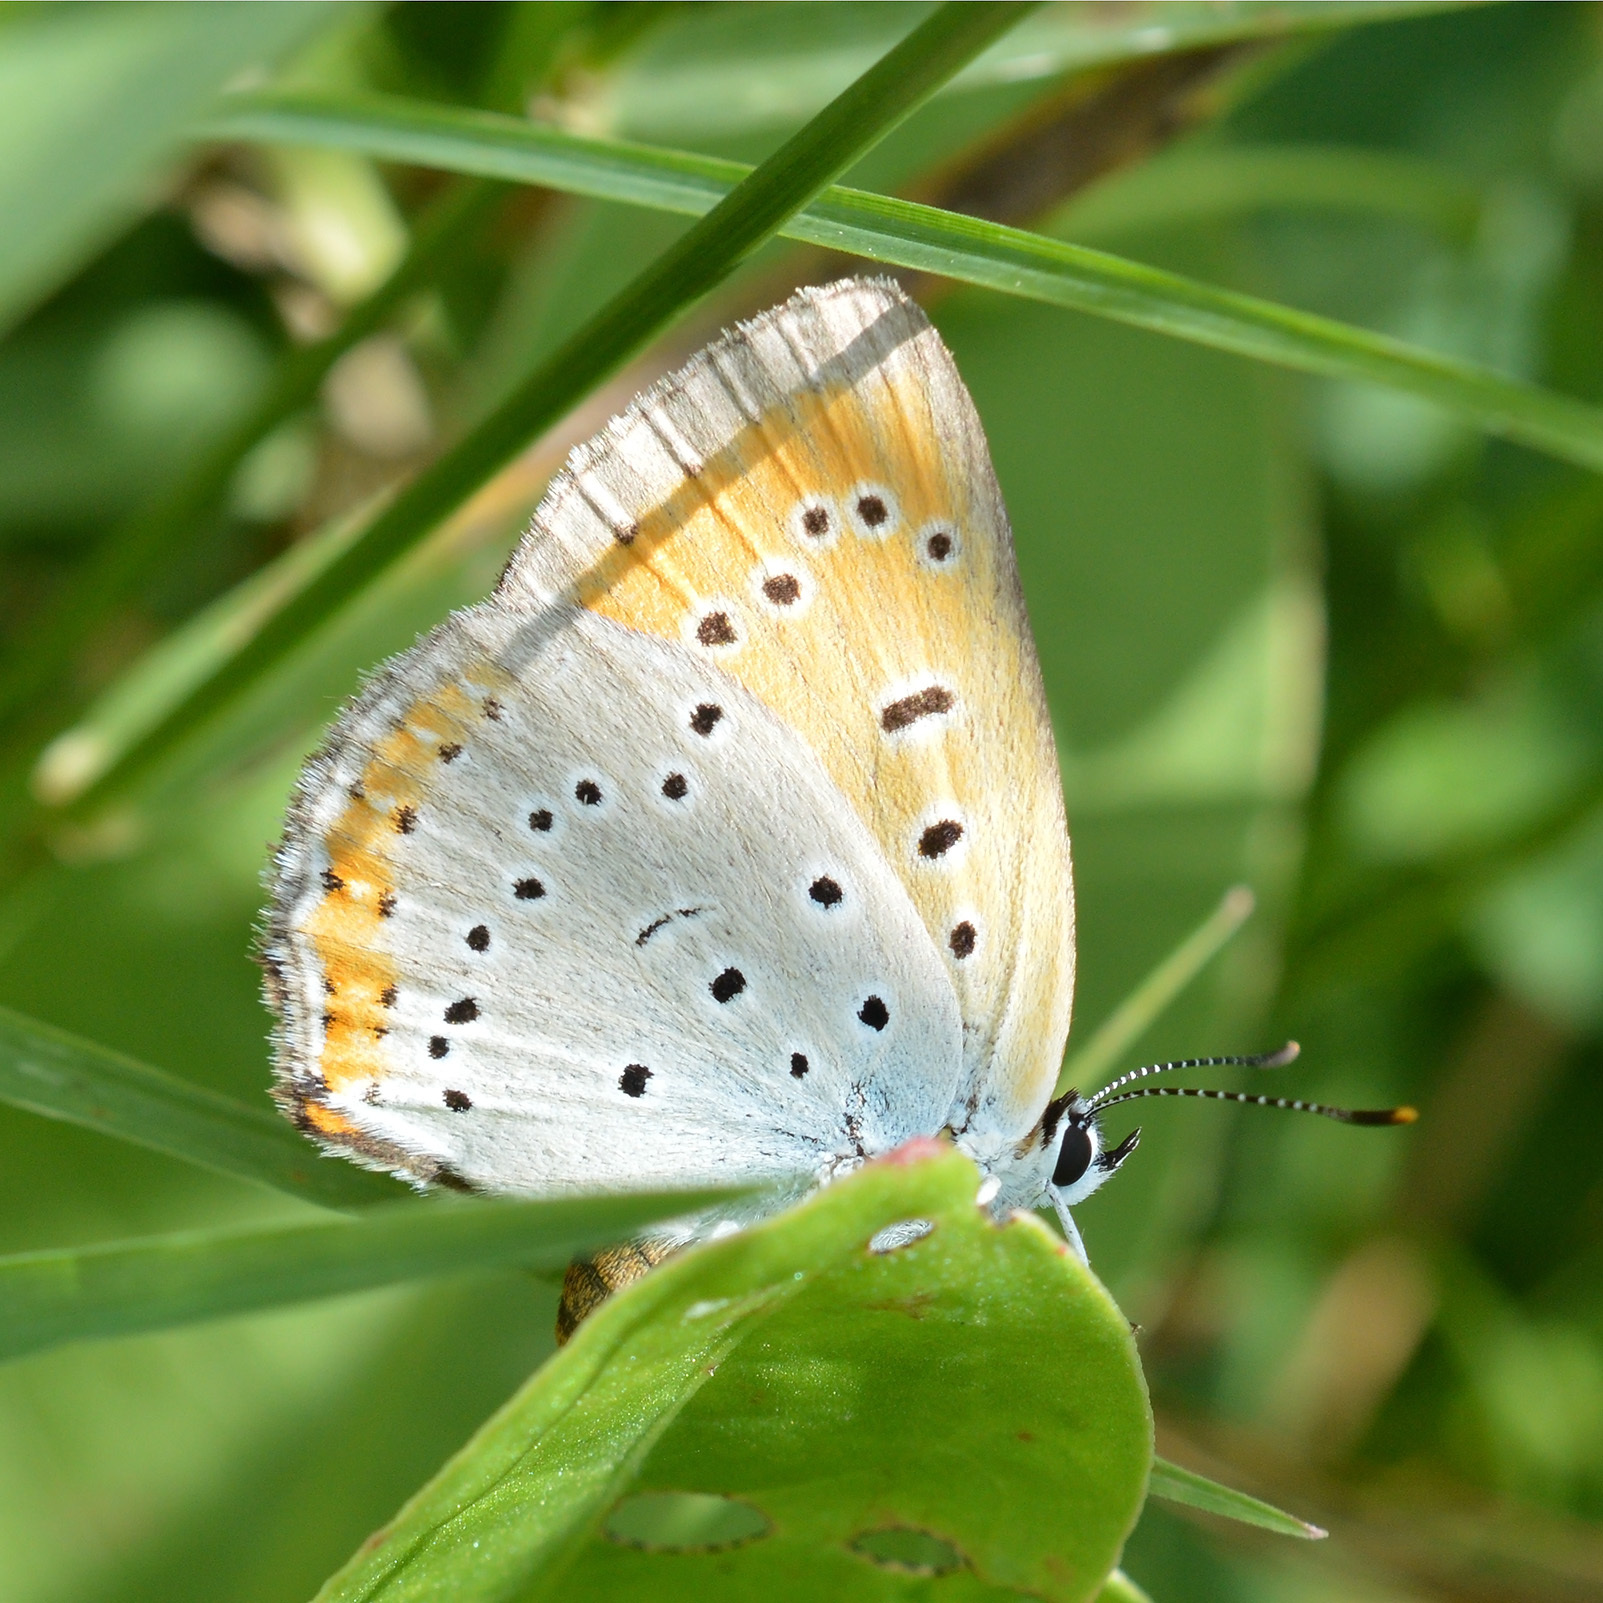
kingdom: Animalia
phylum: Arthropoda
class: Insecta
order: Lepidoptera
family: Lycaenidae
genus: Lycaena
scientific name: Lycaena dispar
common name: Large copper
